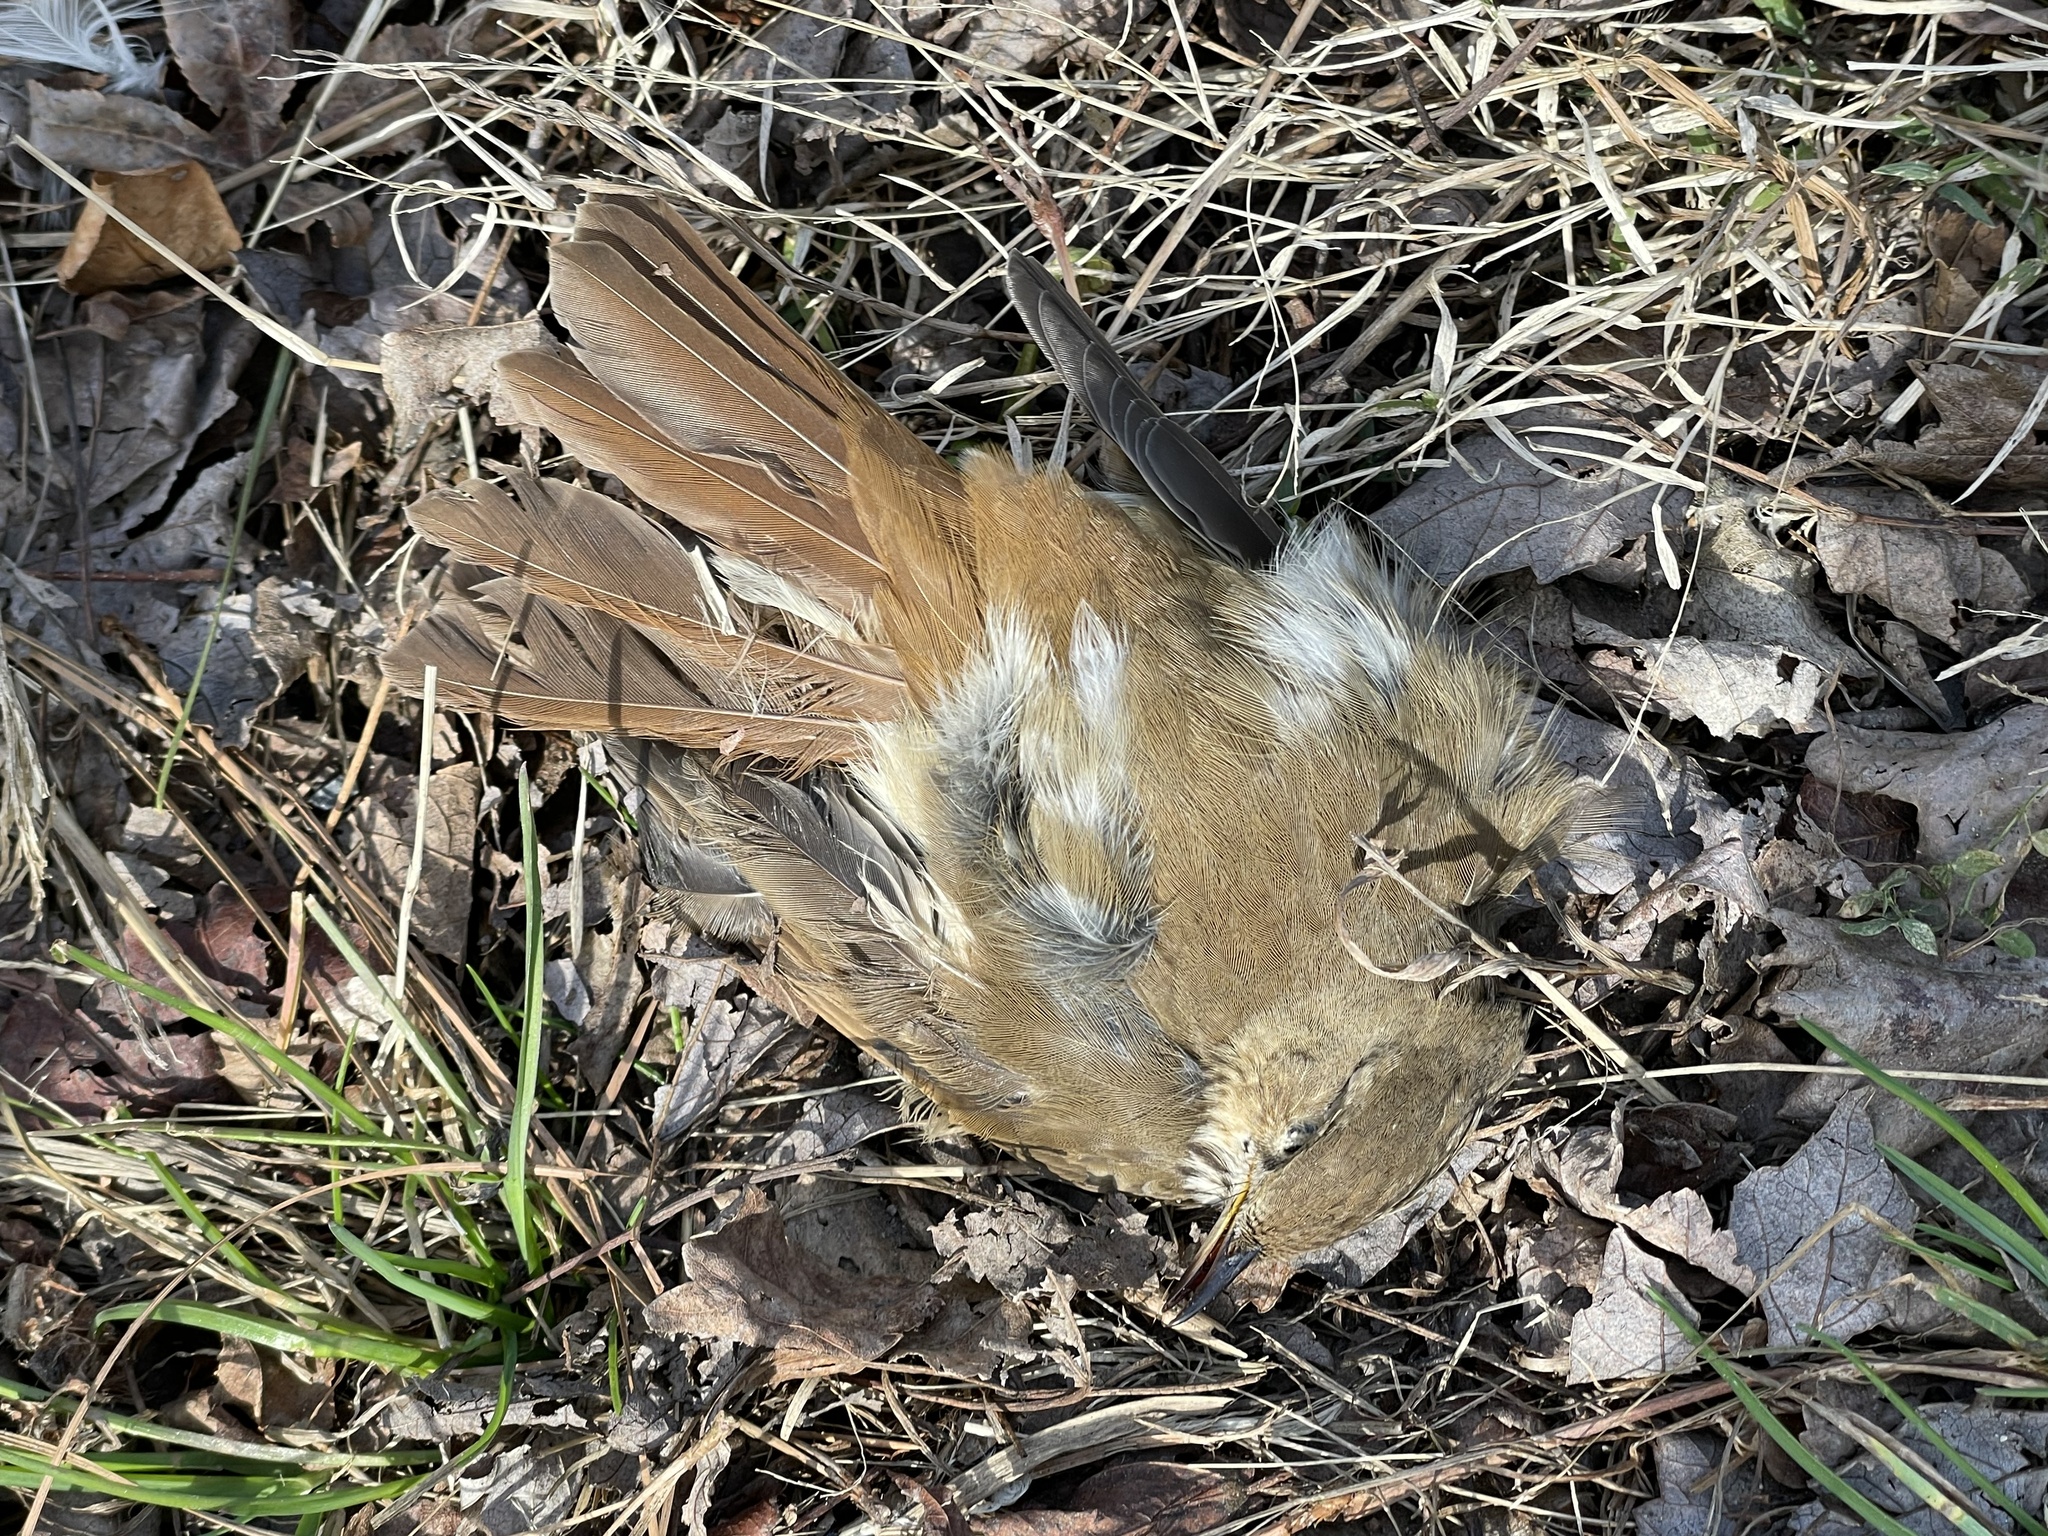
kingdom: Animalia
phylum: Chordata
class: Aves
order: Passeriformes
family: Turdidae
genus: Catharus
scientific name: Catharus guttatus
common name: Hermit thrush
